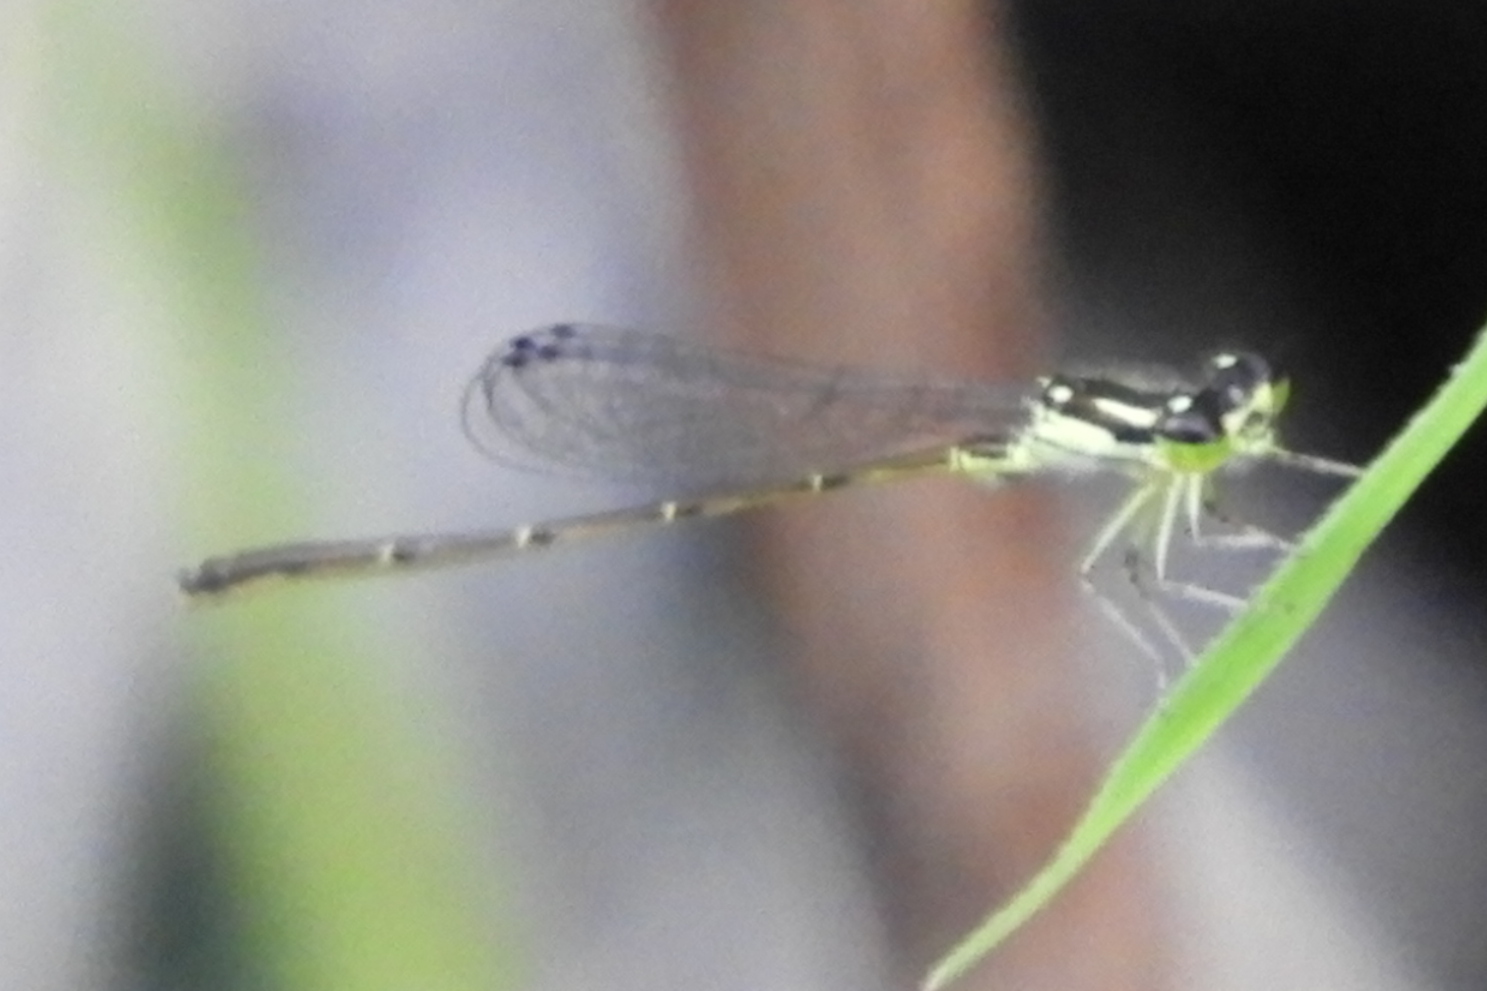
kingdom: Animalia
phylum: Arthropoda
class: Insecta
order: Odonata
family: Coenagrionidae
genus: Ischnura
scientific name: Ischnura posita
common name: Fragile forktail
